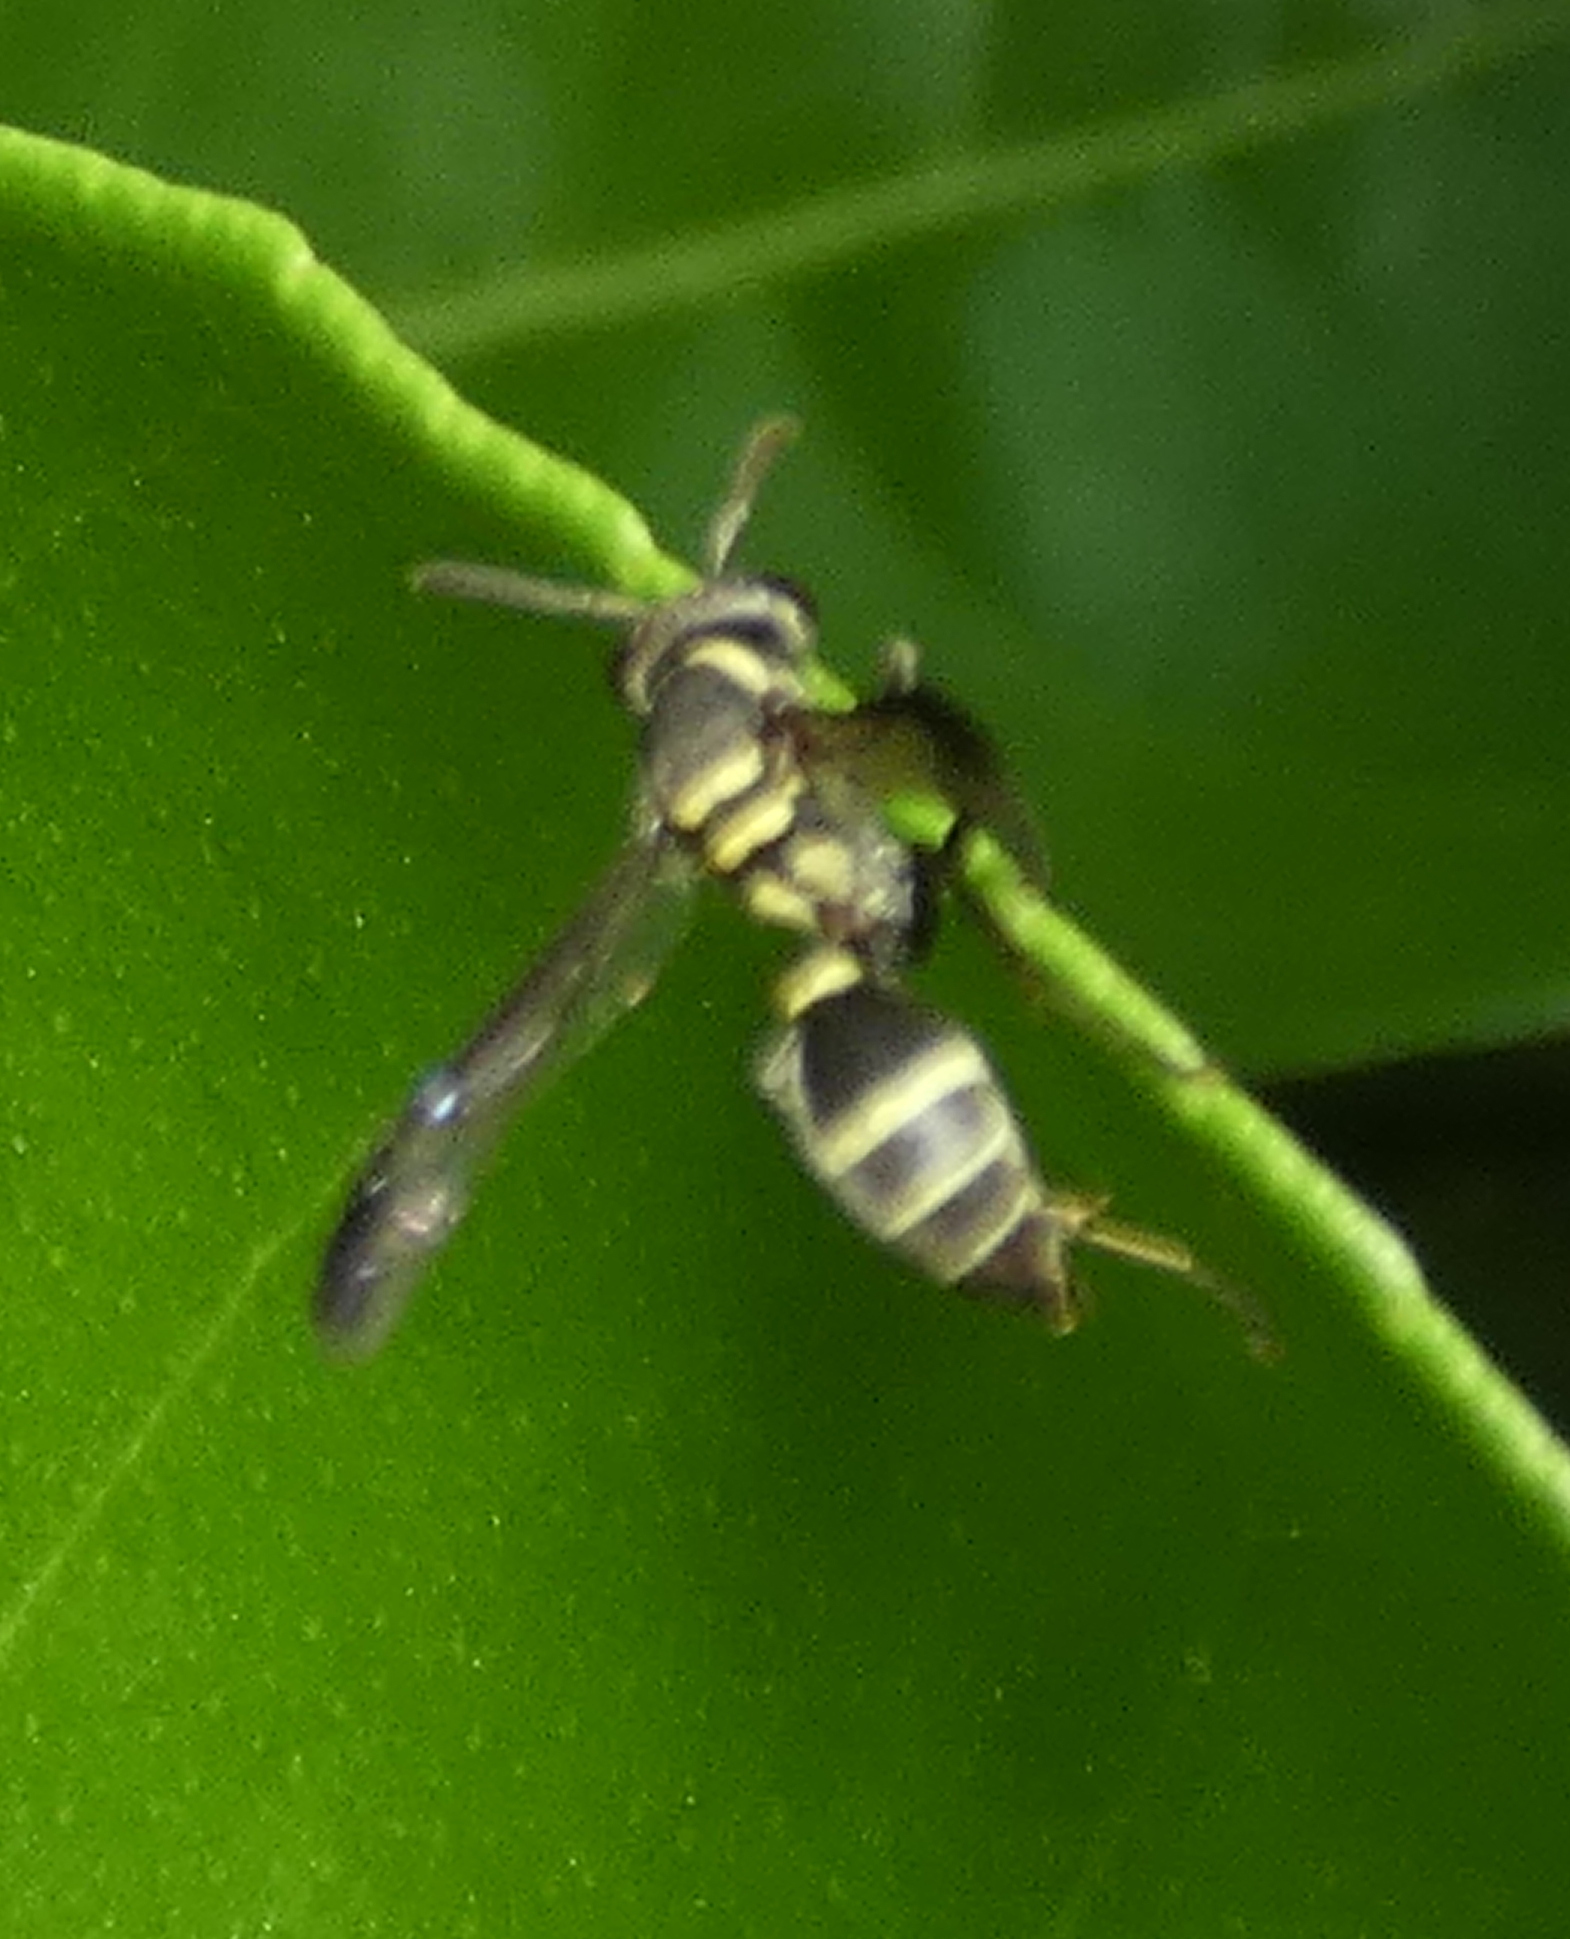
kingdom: Animalia
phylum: Arthropoda
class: Insecta
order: Hymenoptera
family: Eumenidae
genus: Polybia
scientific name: Polybia occidentalis
